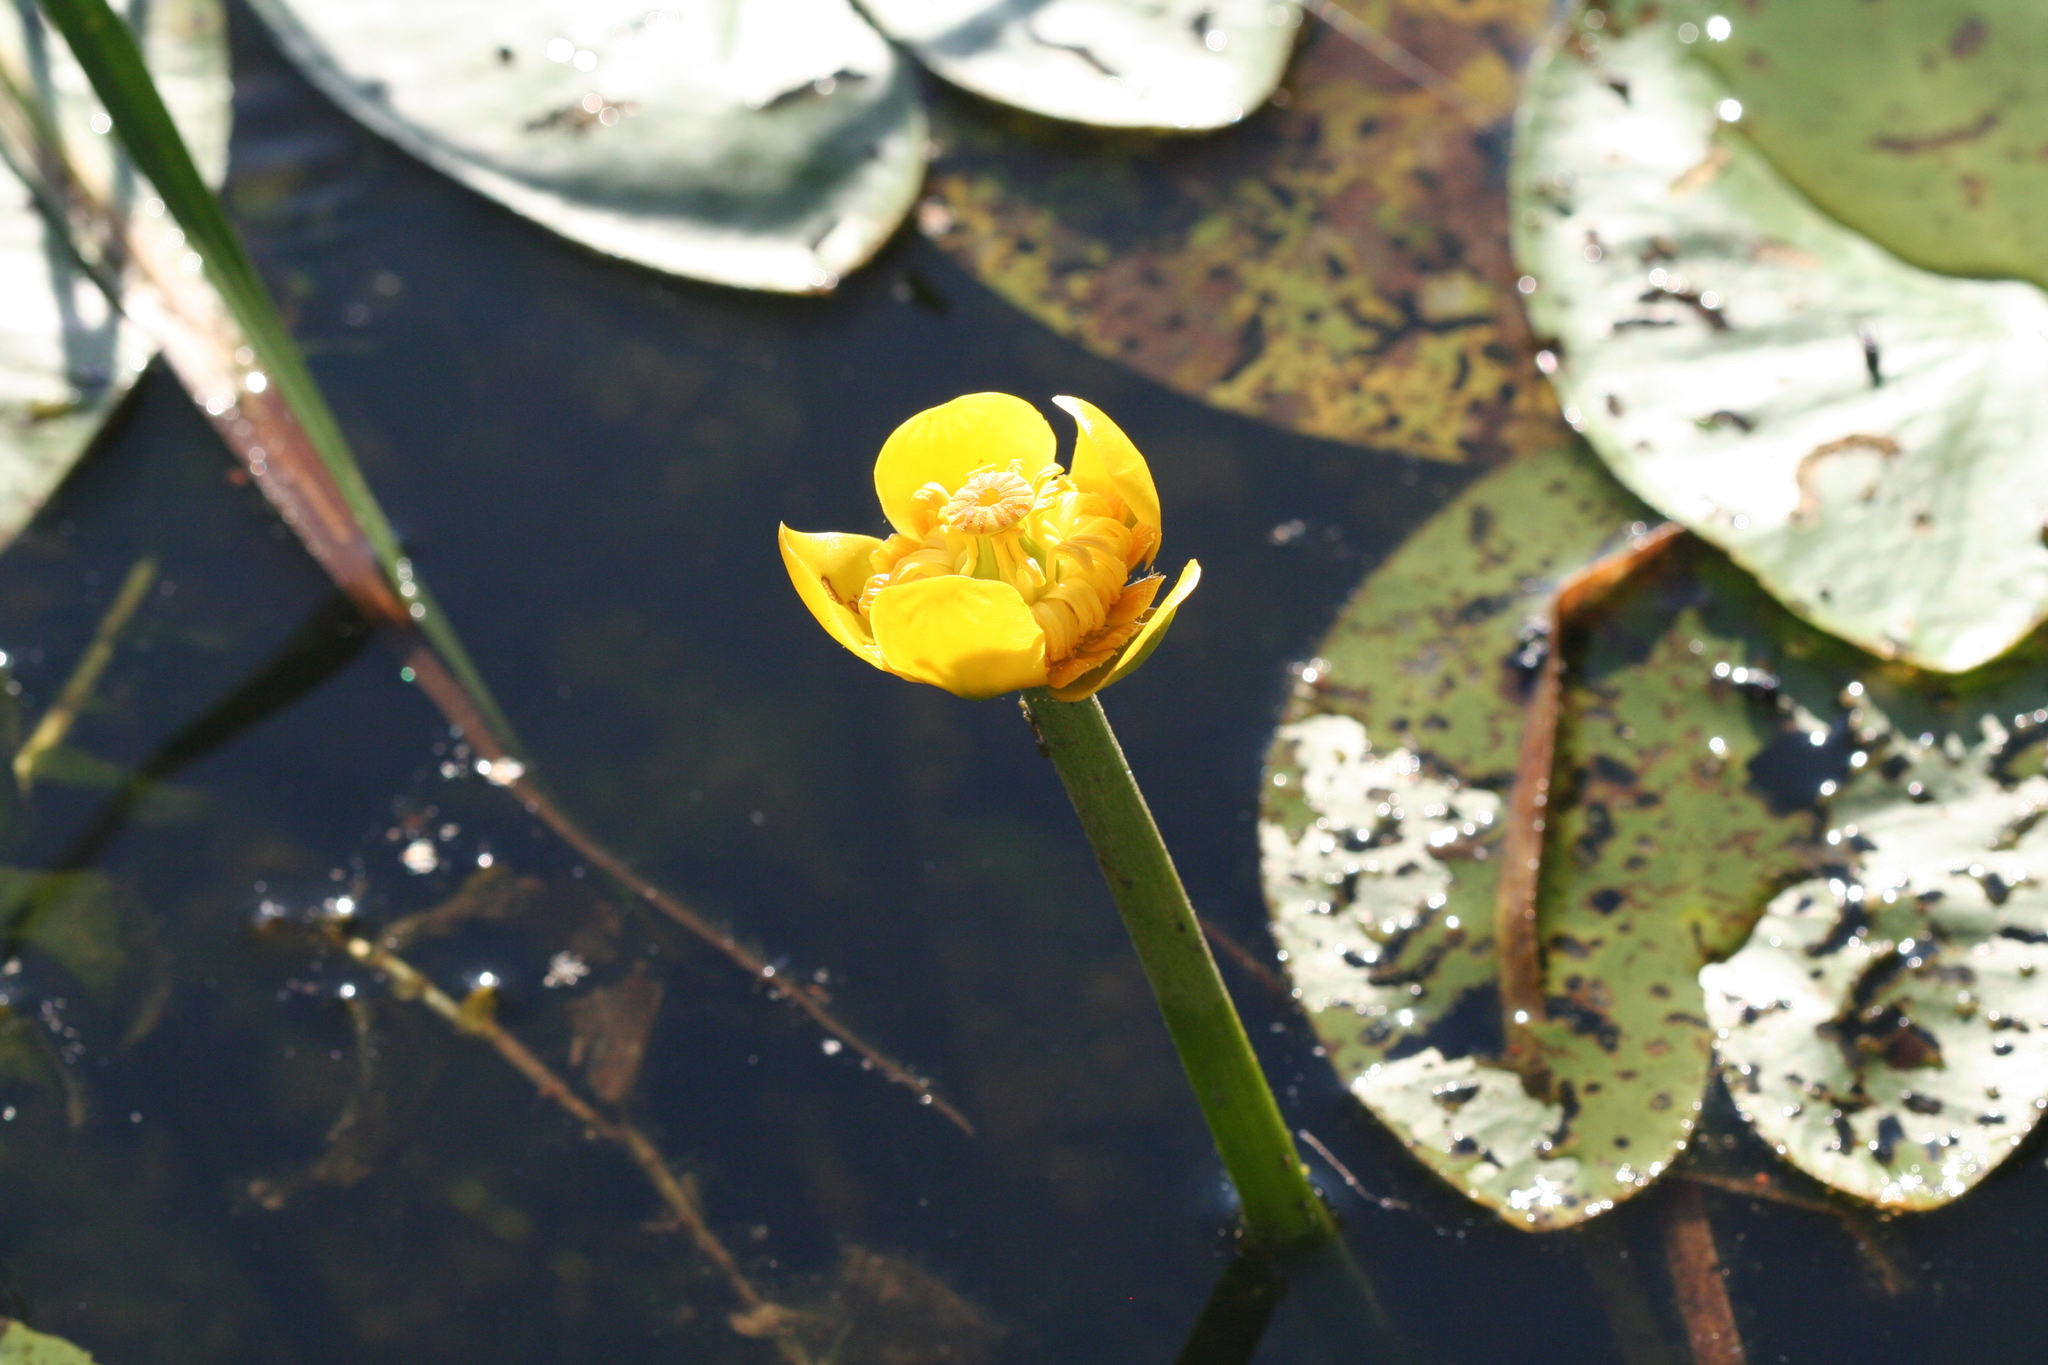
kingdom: Plantae
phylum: Tracheophyta
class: Magnoliopsida
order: Nymphaeales
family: Nymphaeaceae
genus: Nuphar
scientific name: Nuphar lutea
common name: Yellow water-lily
